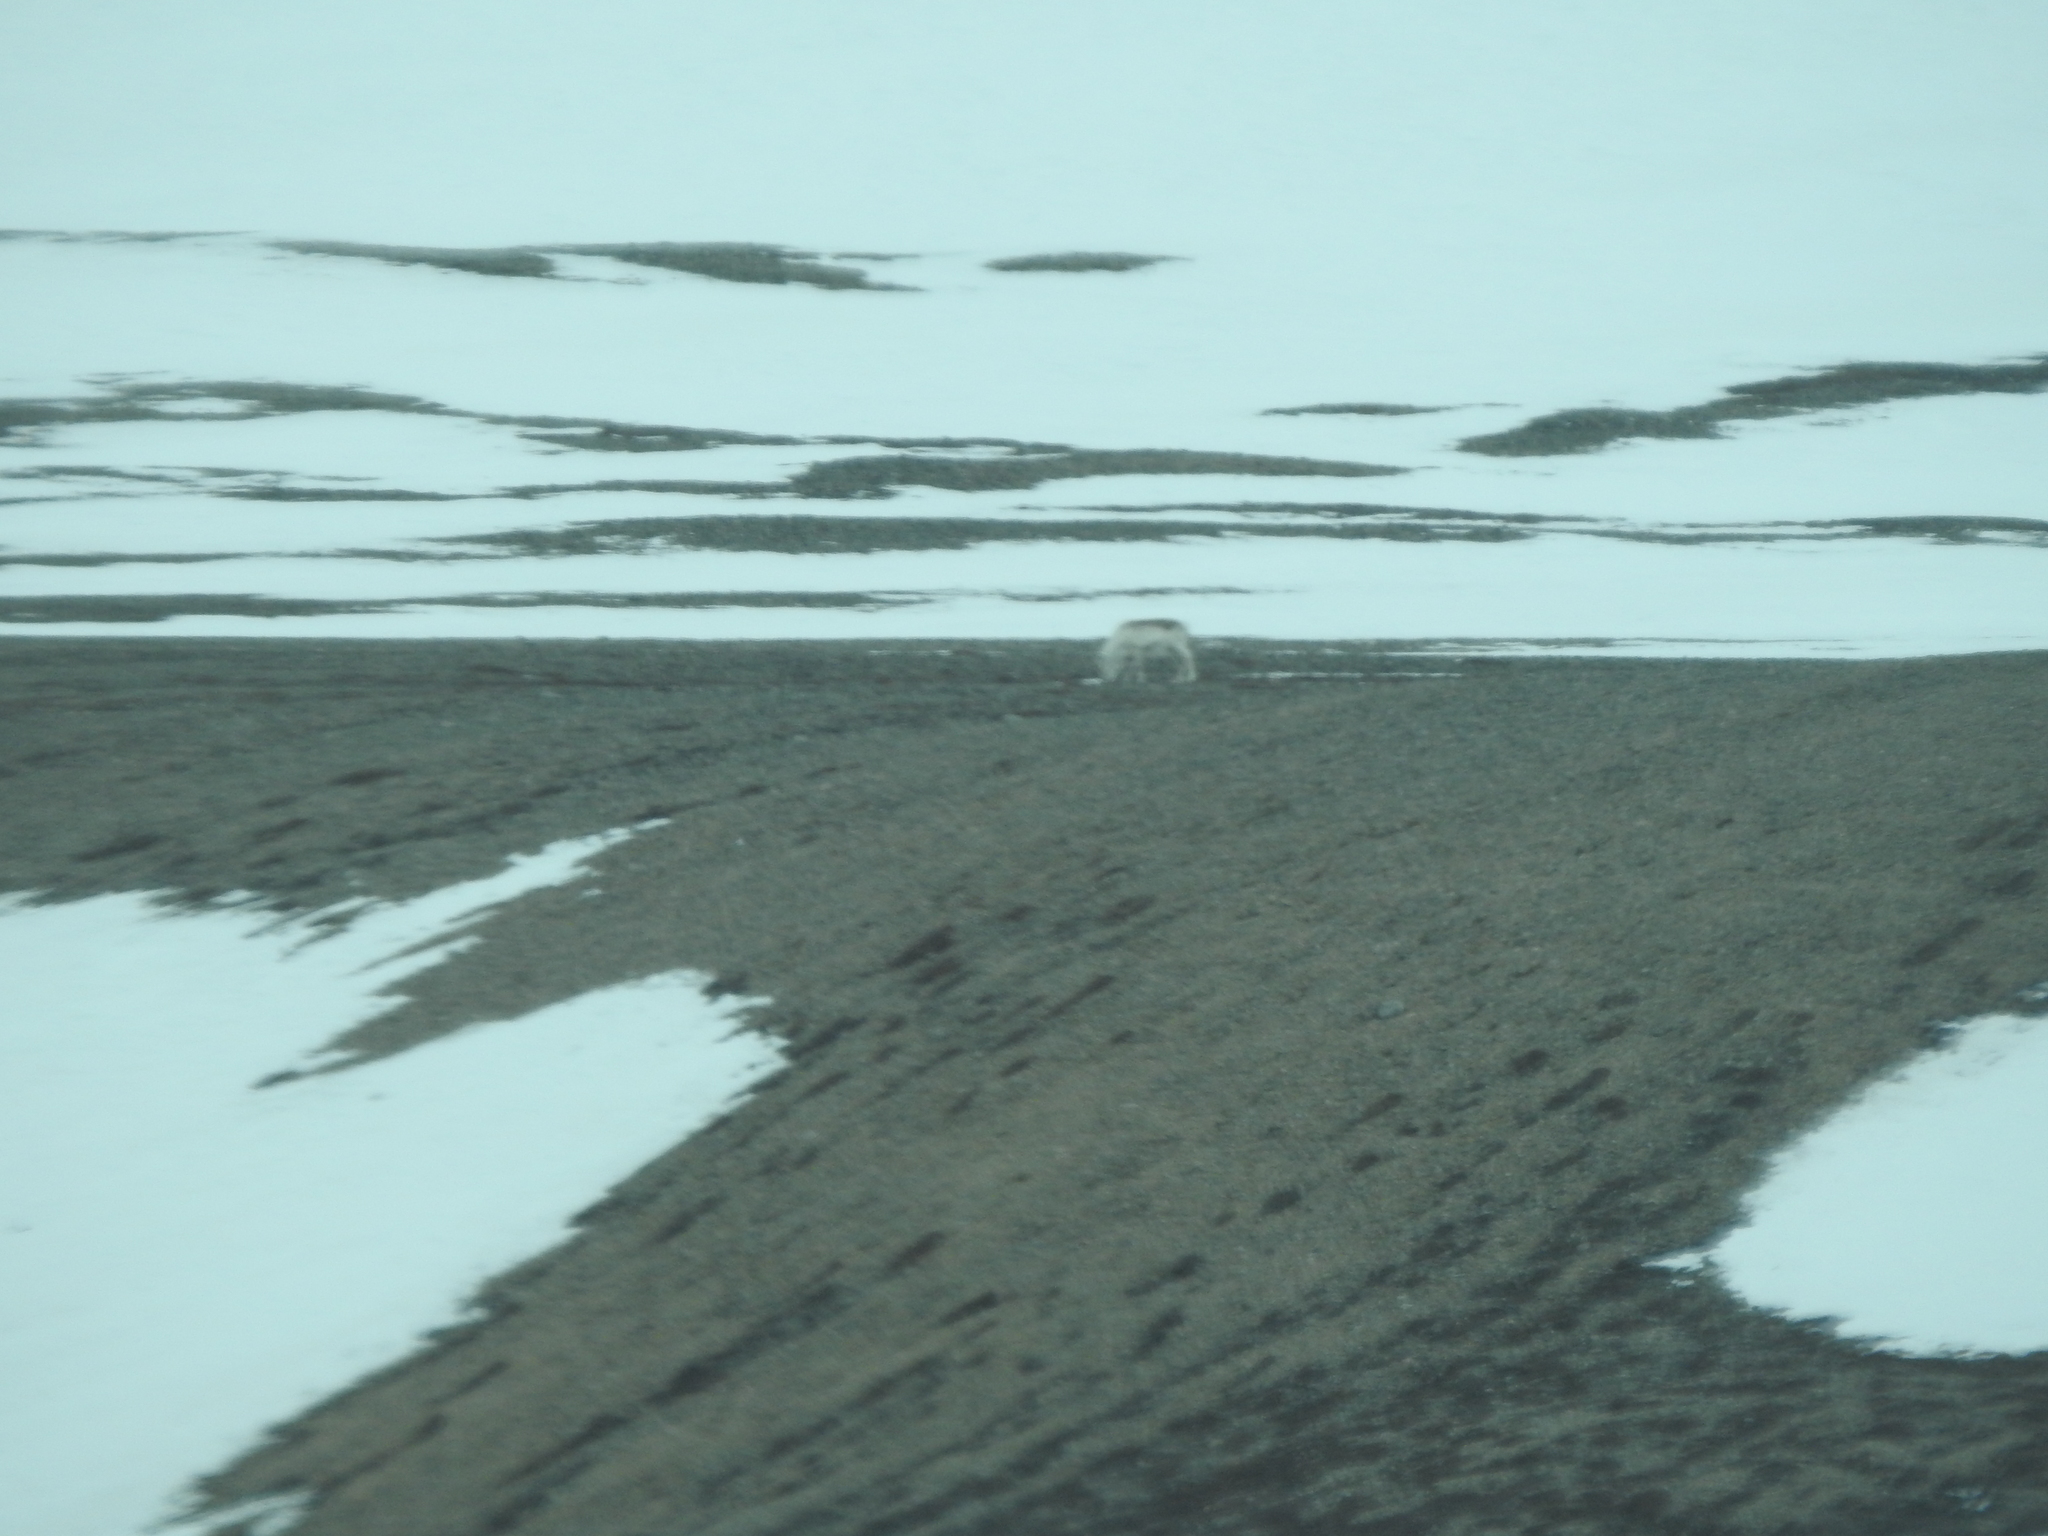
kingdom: Animalia
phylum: Chordata
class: Mammalia
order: Artiodactyla
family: Cervidae
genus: Rangifer
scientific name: Rangifer tarandus
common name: Reindeer
